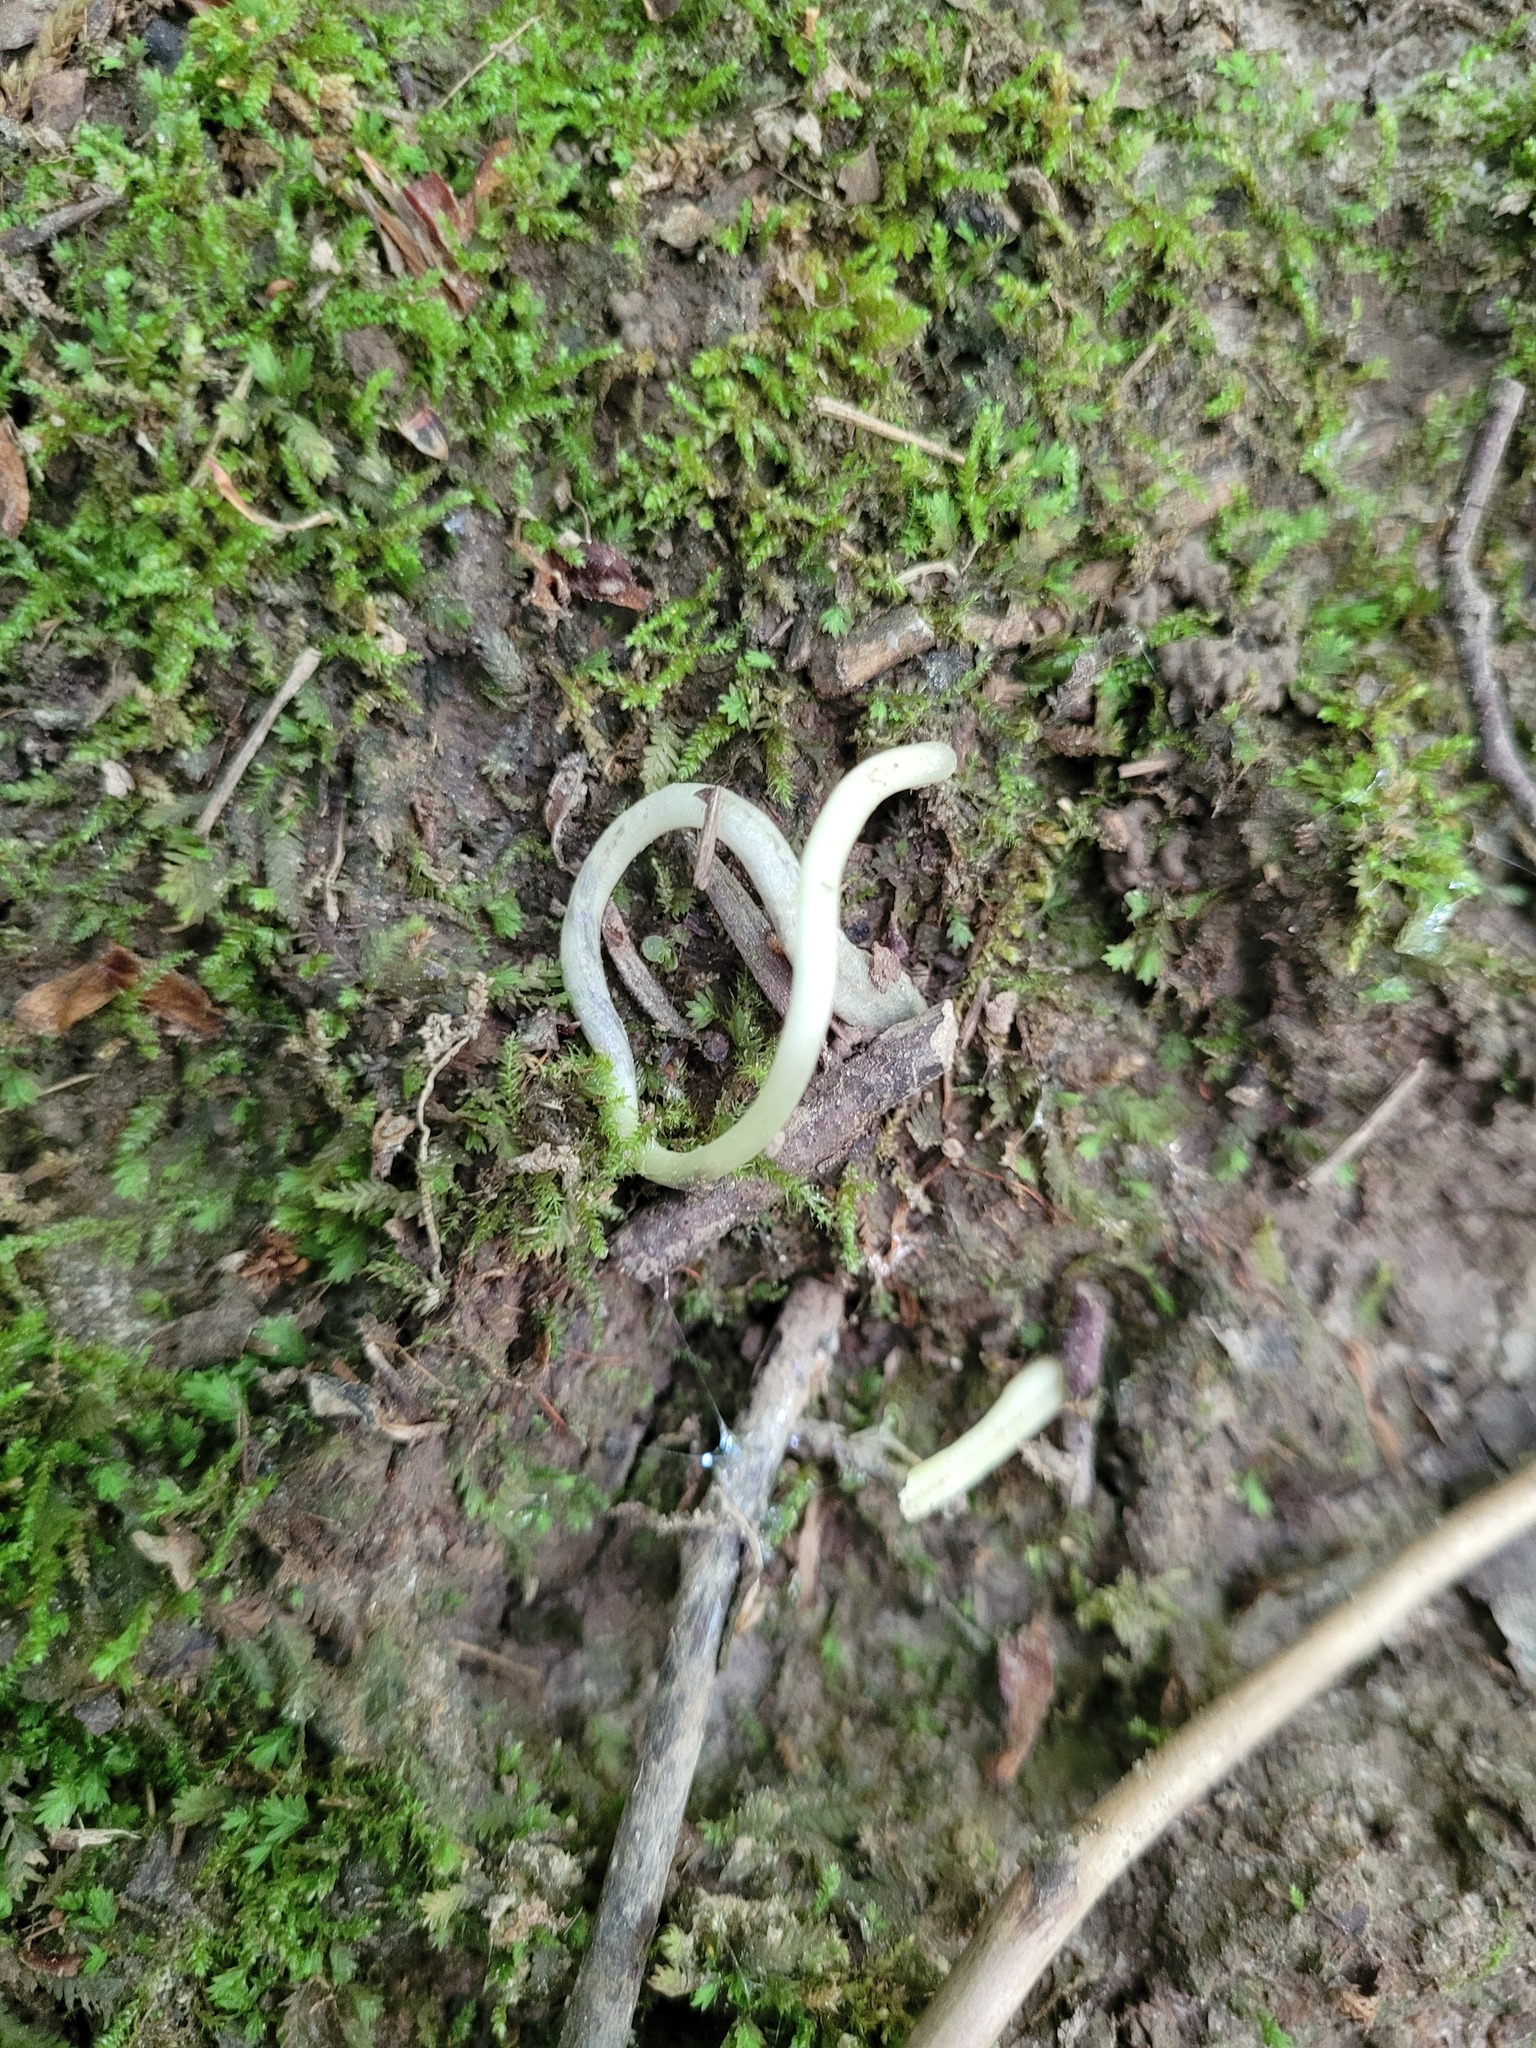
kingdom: Plantae
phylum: Tracheophyta
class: Liliopsida
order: Liliales
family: Liliaceae
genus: Erythronium
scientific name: Erythronium americanum
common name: Yellow adder's-tongue
